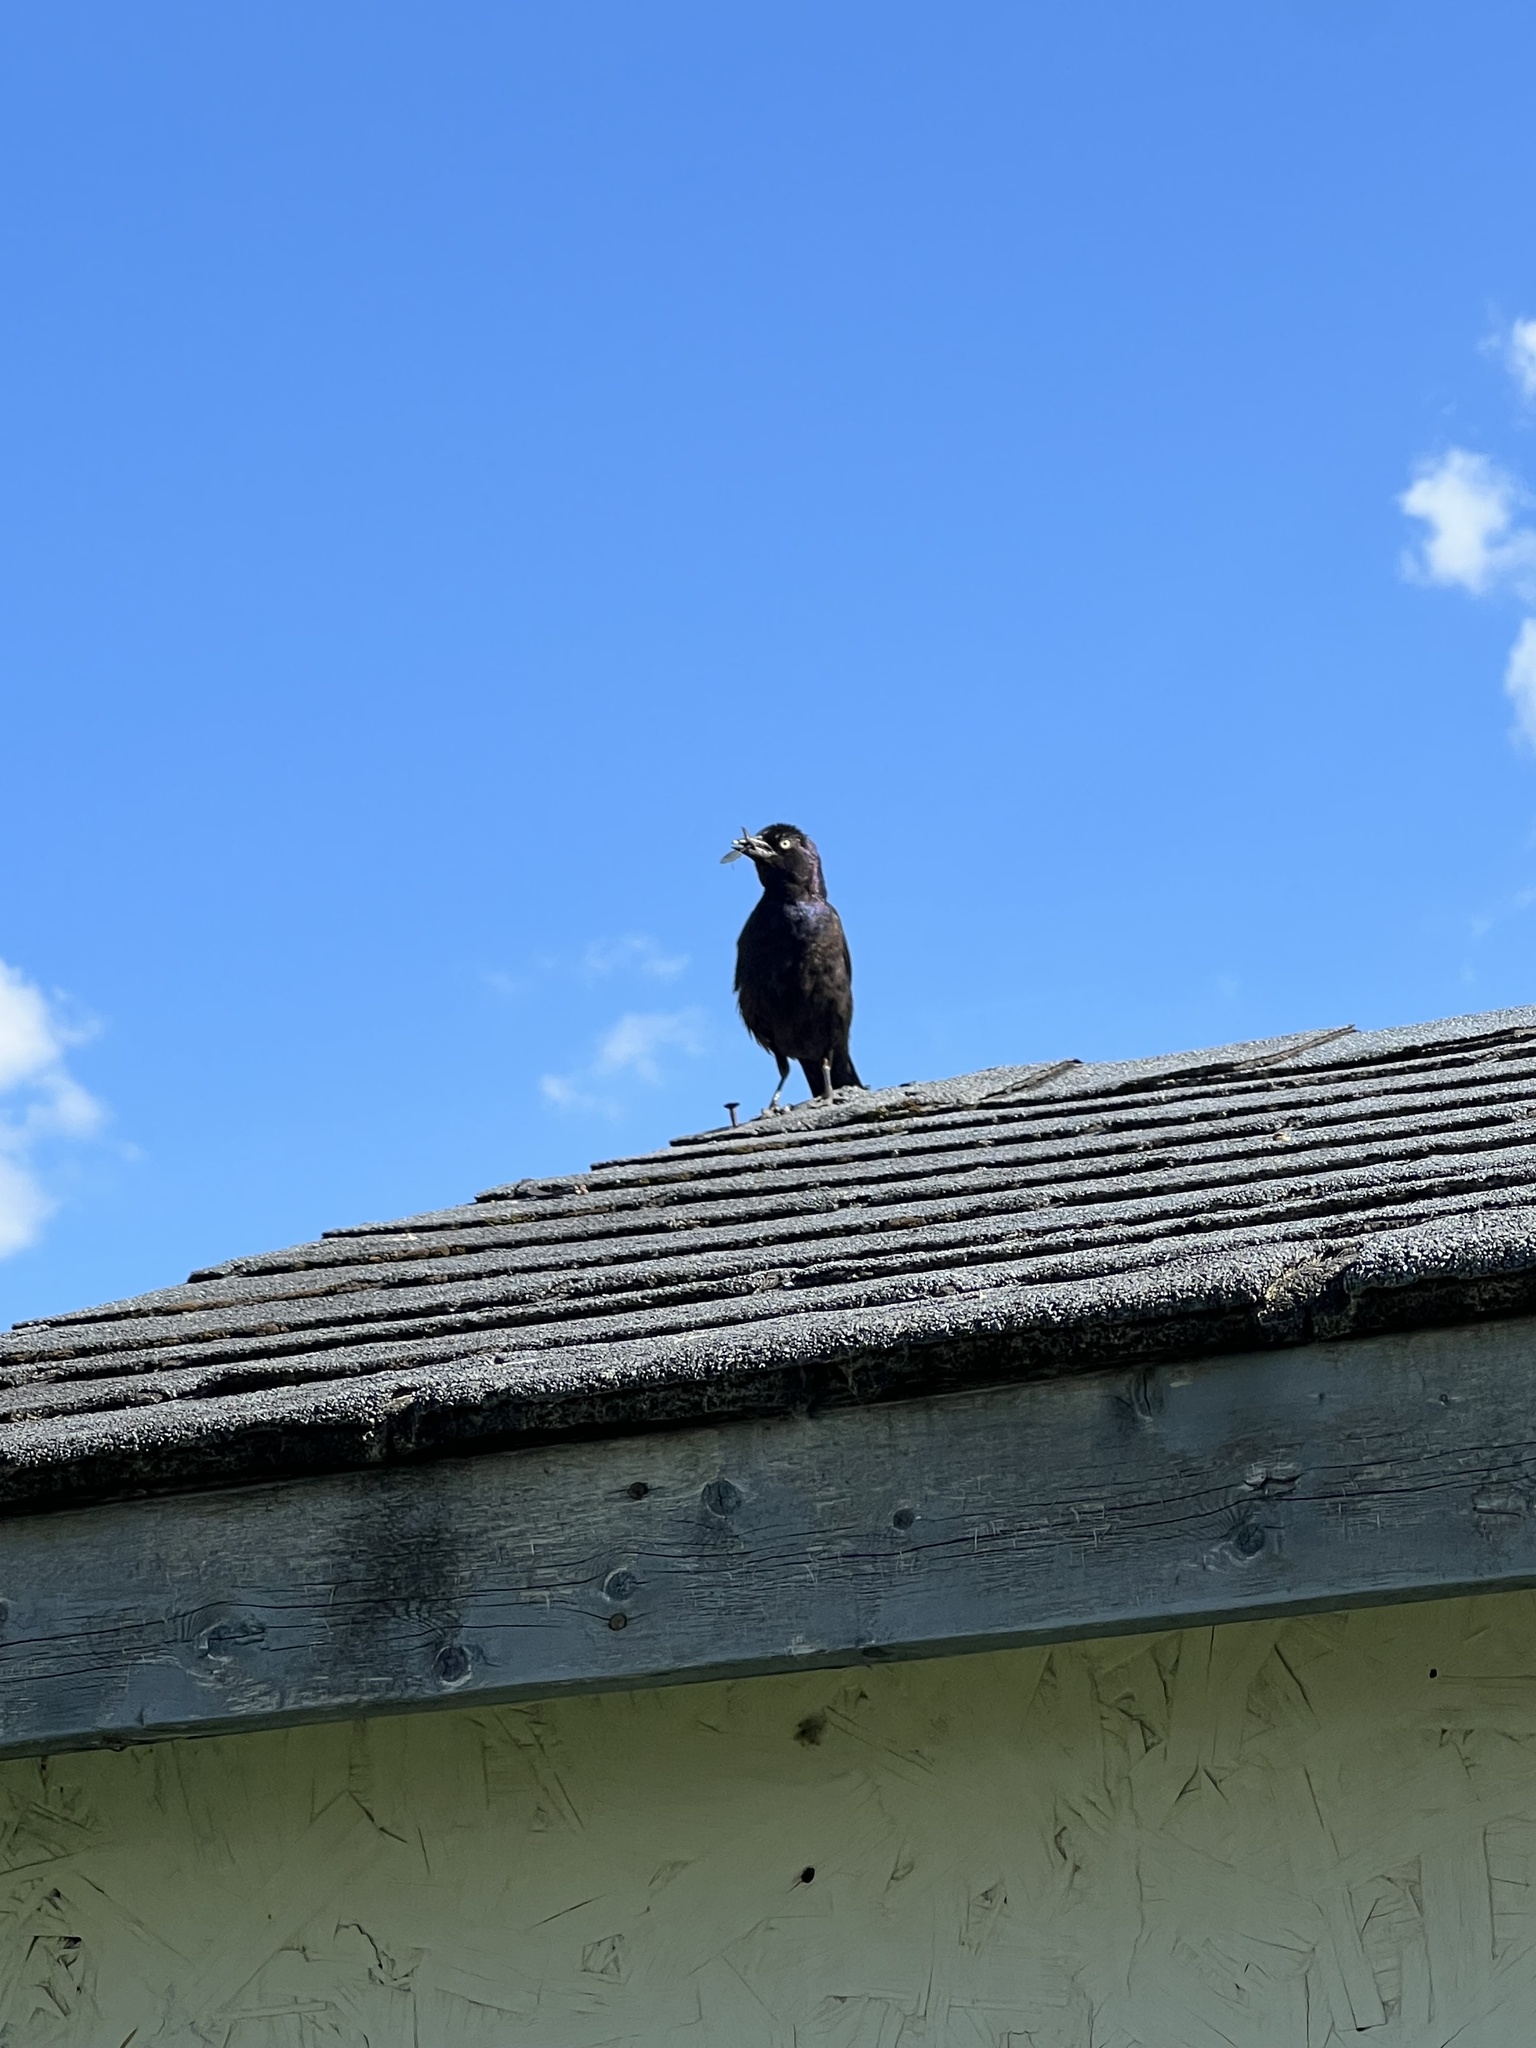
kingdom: Animalia
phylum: Chordata
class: Aves
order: Passeriformes
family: Icteridae
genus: Quiscalus
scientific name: Quiscalus quiscula
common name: Common grackle
